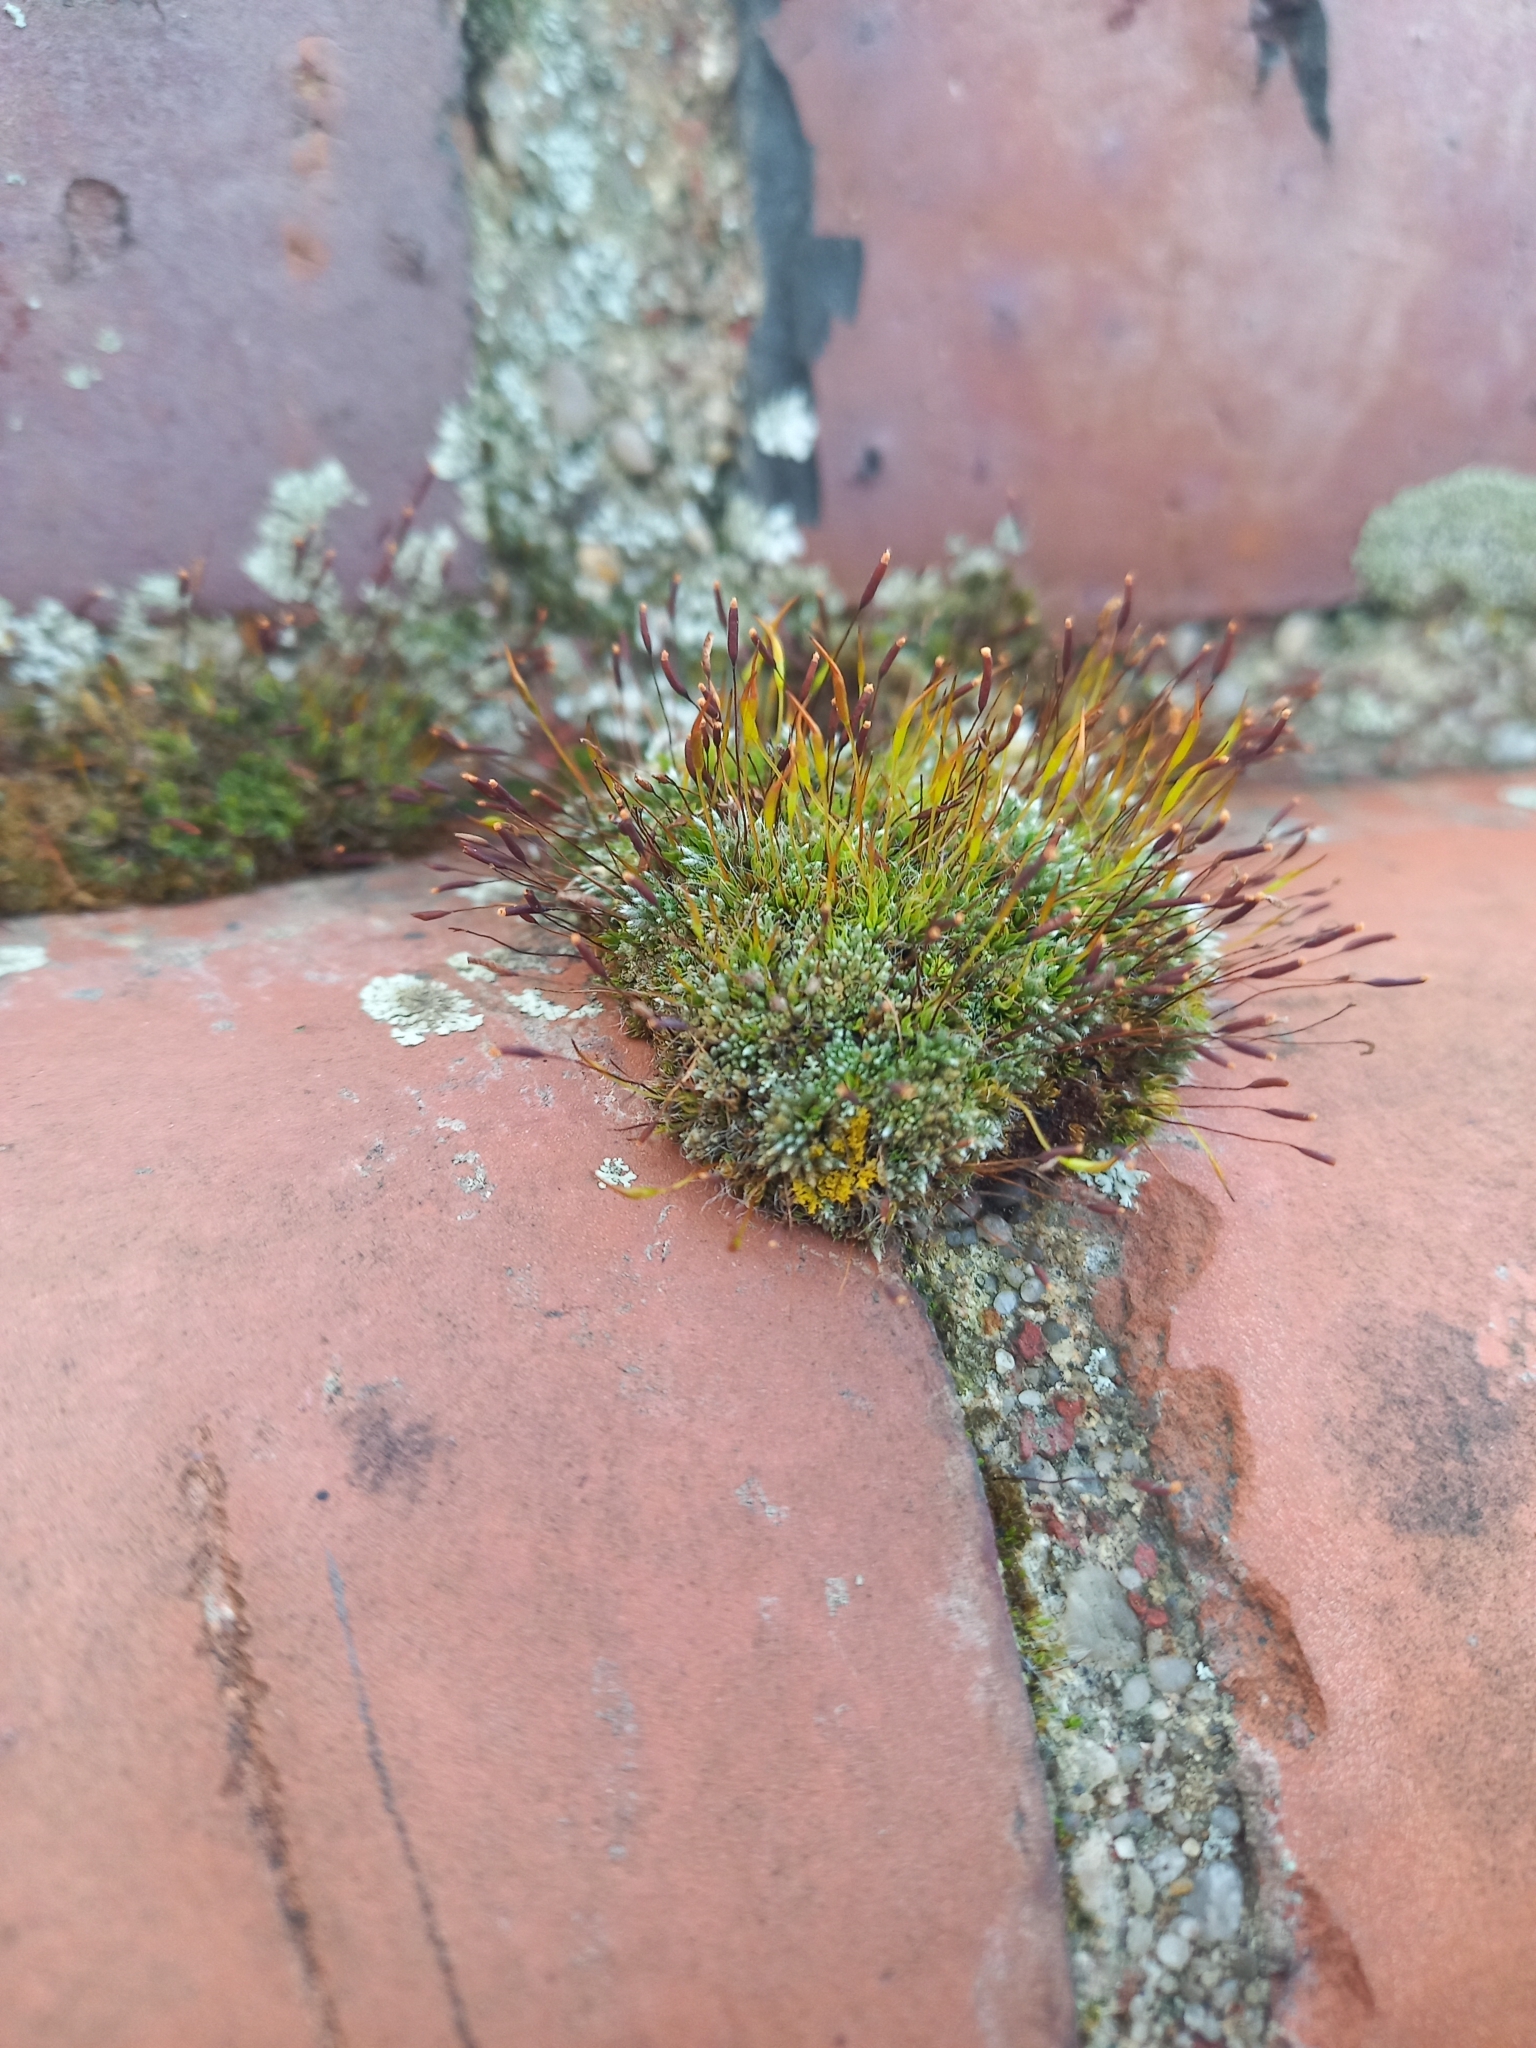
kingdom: Plantae
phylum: Bryophyta
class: Bryopsida
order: Bryales
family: Bryaceae
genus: Bryum
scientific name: Bryum argenteum
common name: Silver-moss
